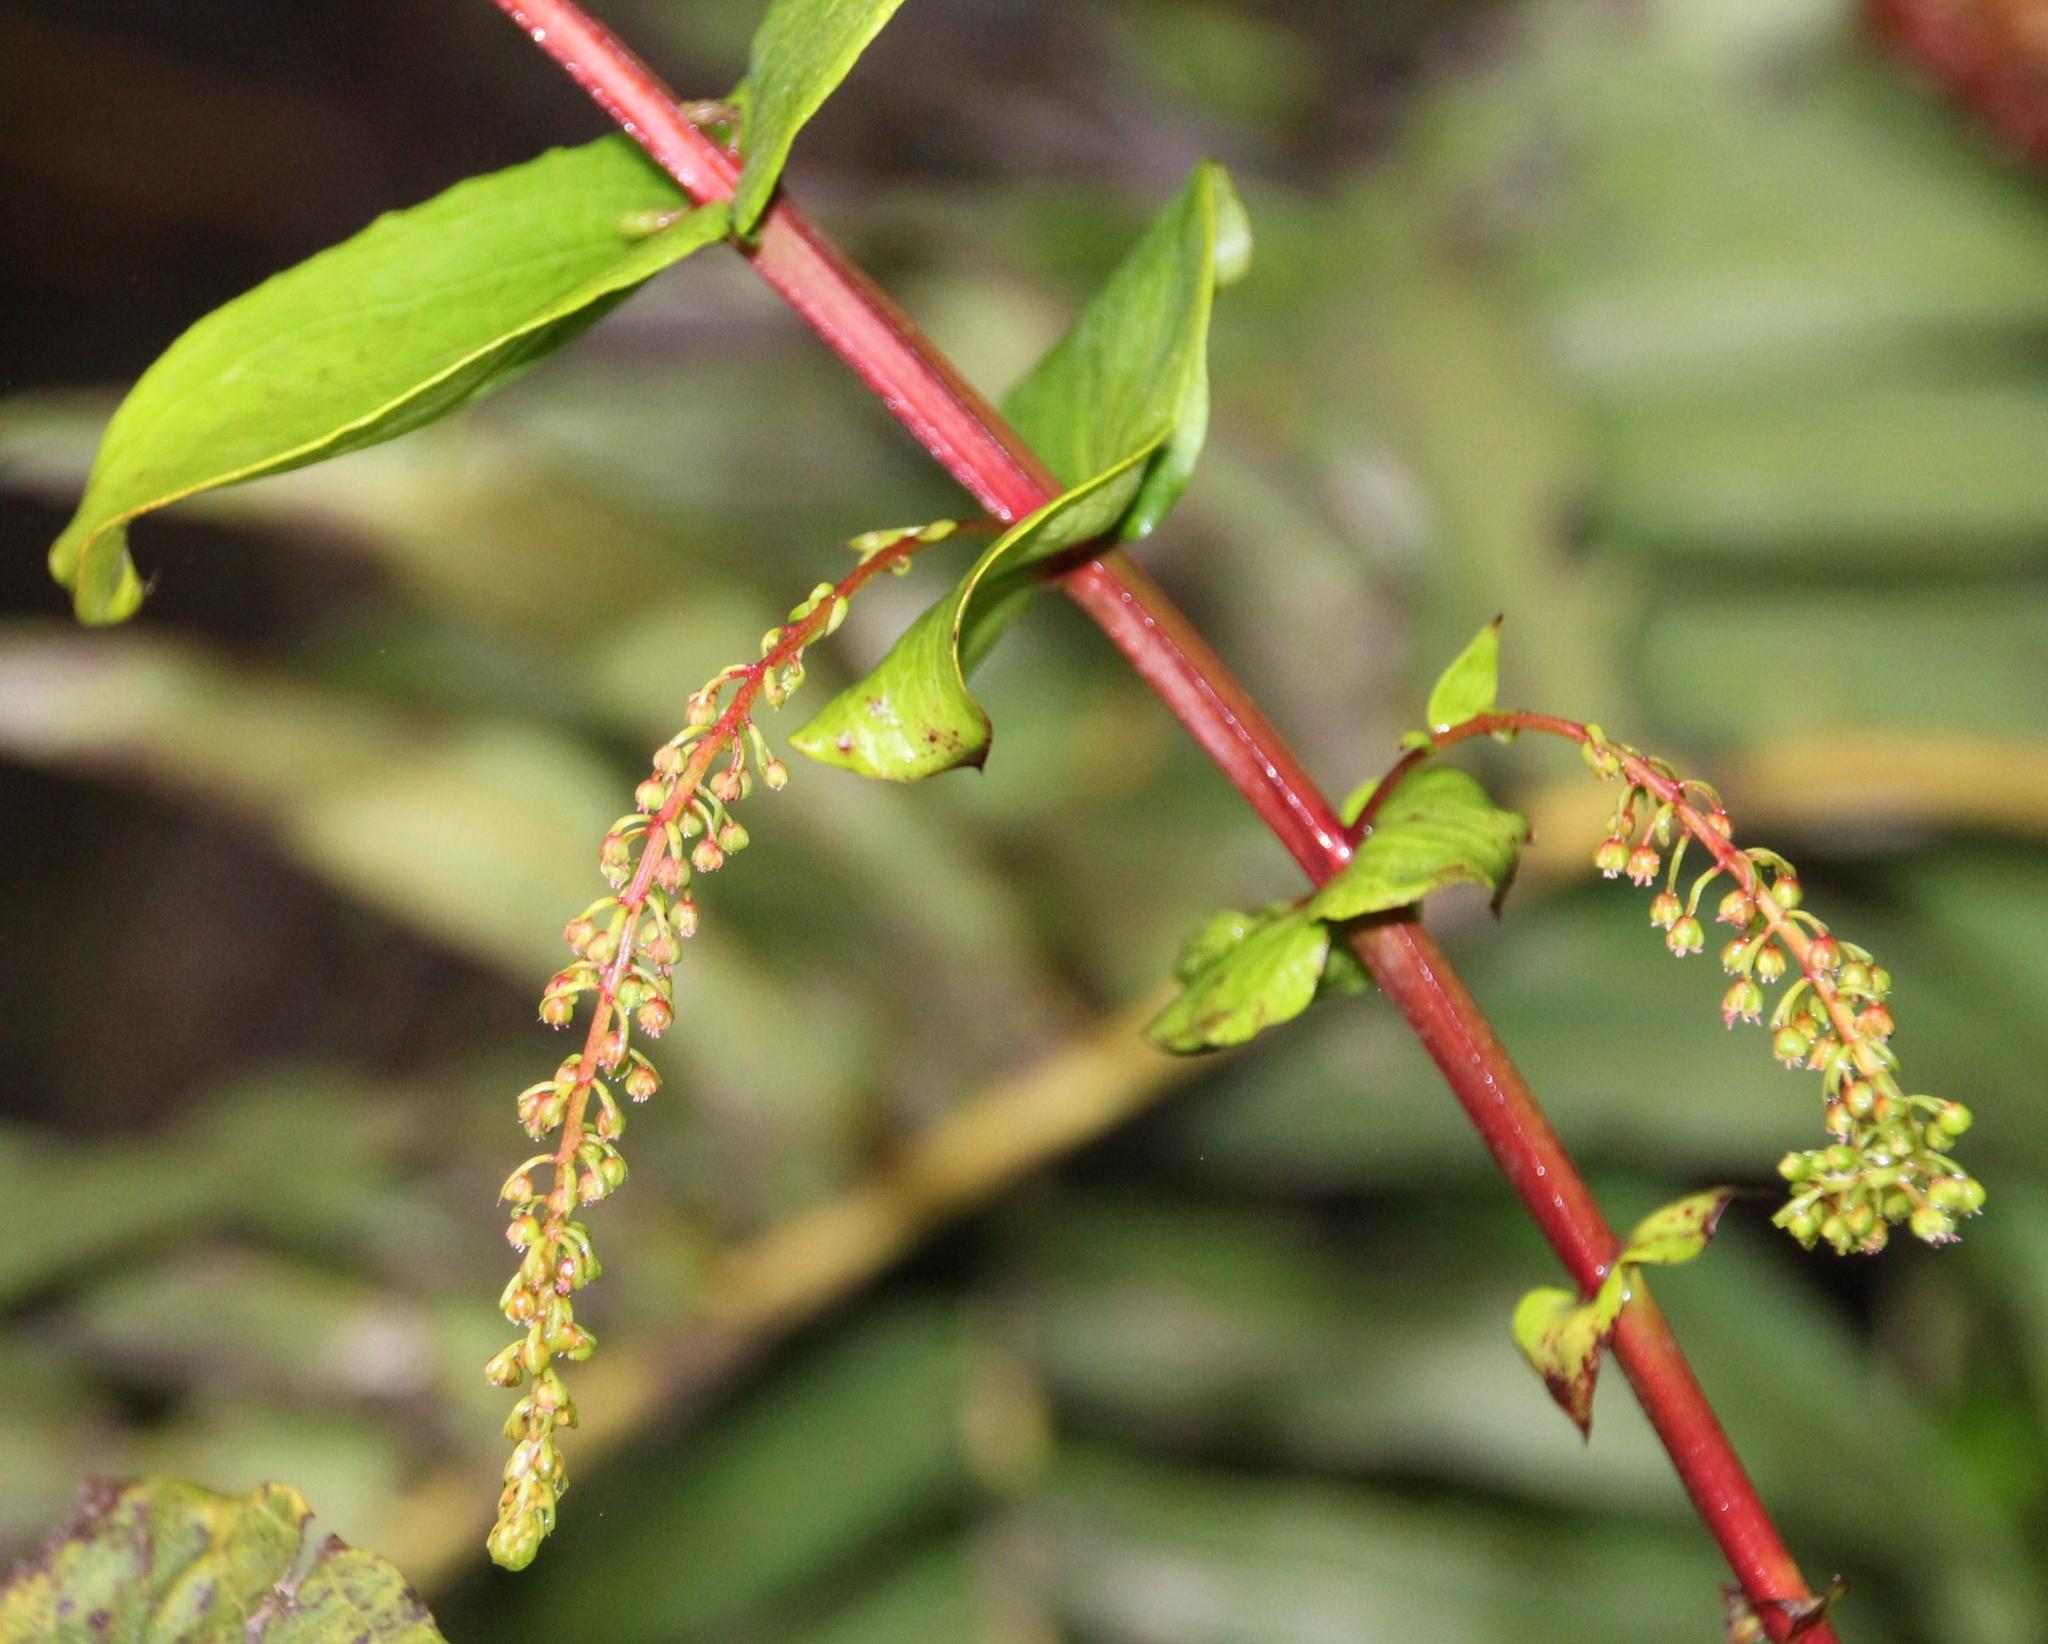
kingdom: Plantae
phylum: Tracheophyta
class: Magnoliopsida
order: Cucurbitales
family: Coriariaceae
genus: Coriaria
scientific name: Coriaria ruscifolia
